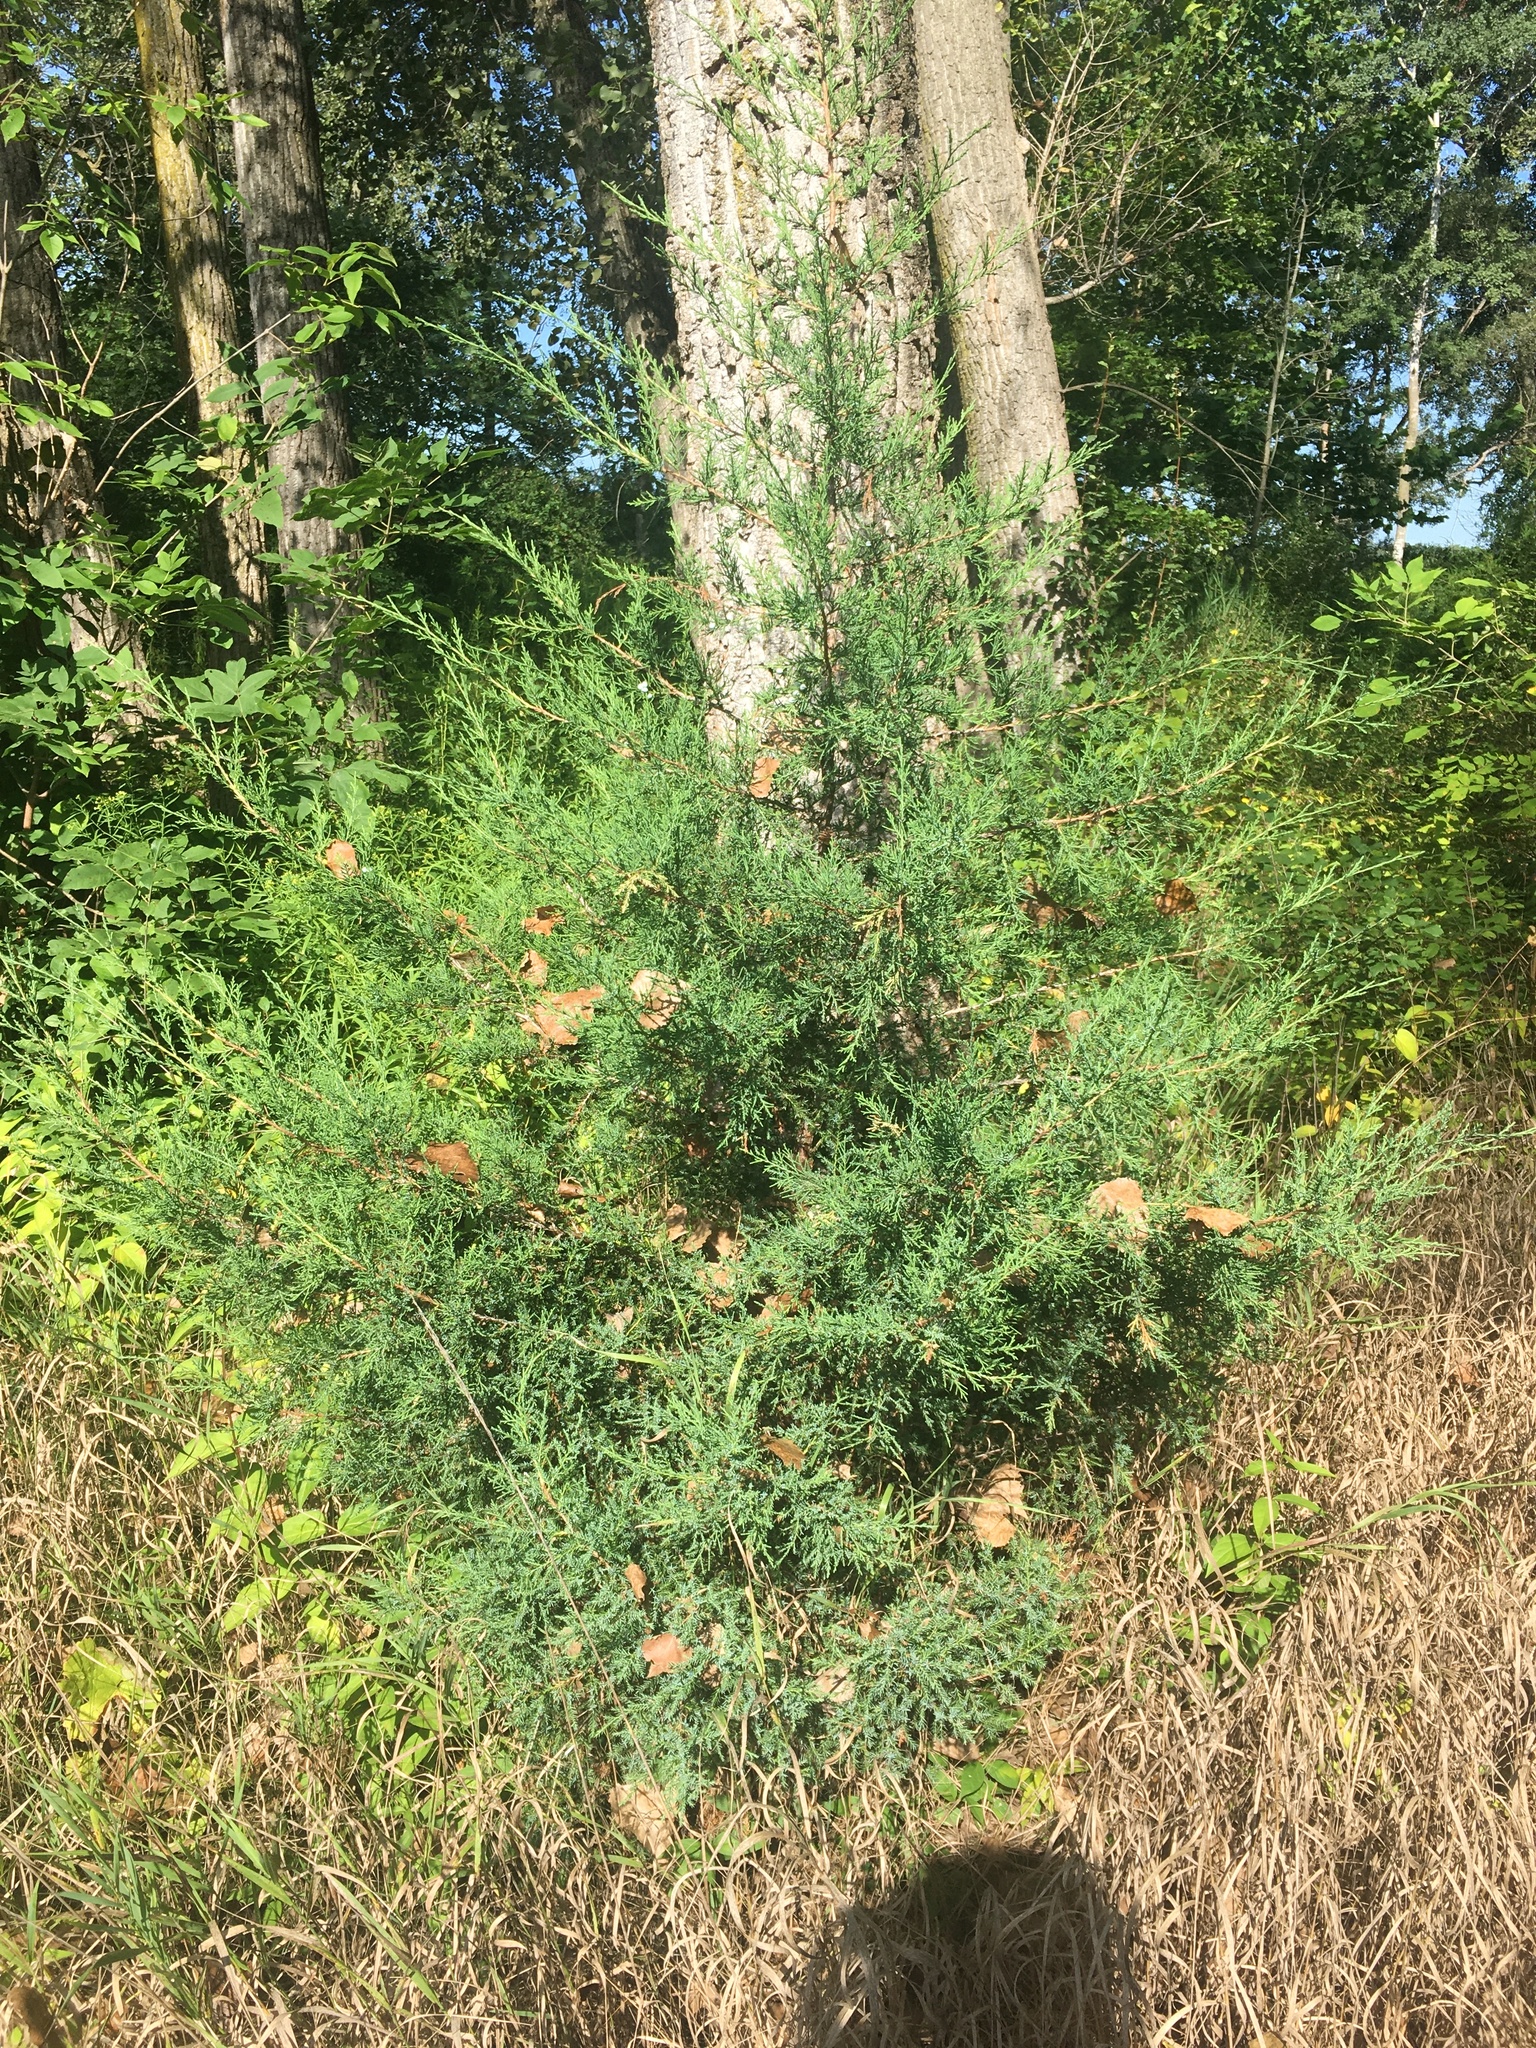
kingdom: Plantae
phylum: Tracheophyta
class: Pinopsida
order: Pinales
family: Cupressaceae
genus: Juniperus
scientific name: Juniperus virginiana
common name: Red juniper
